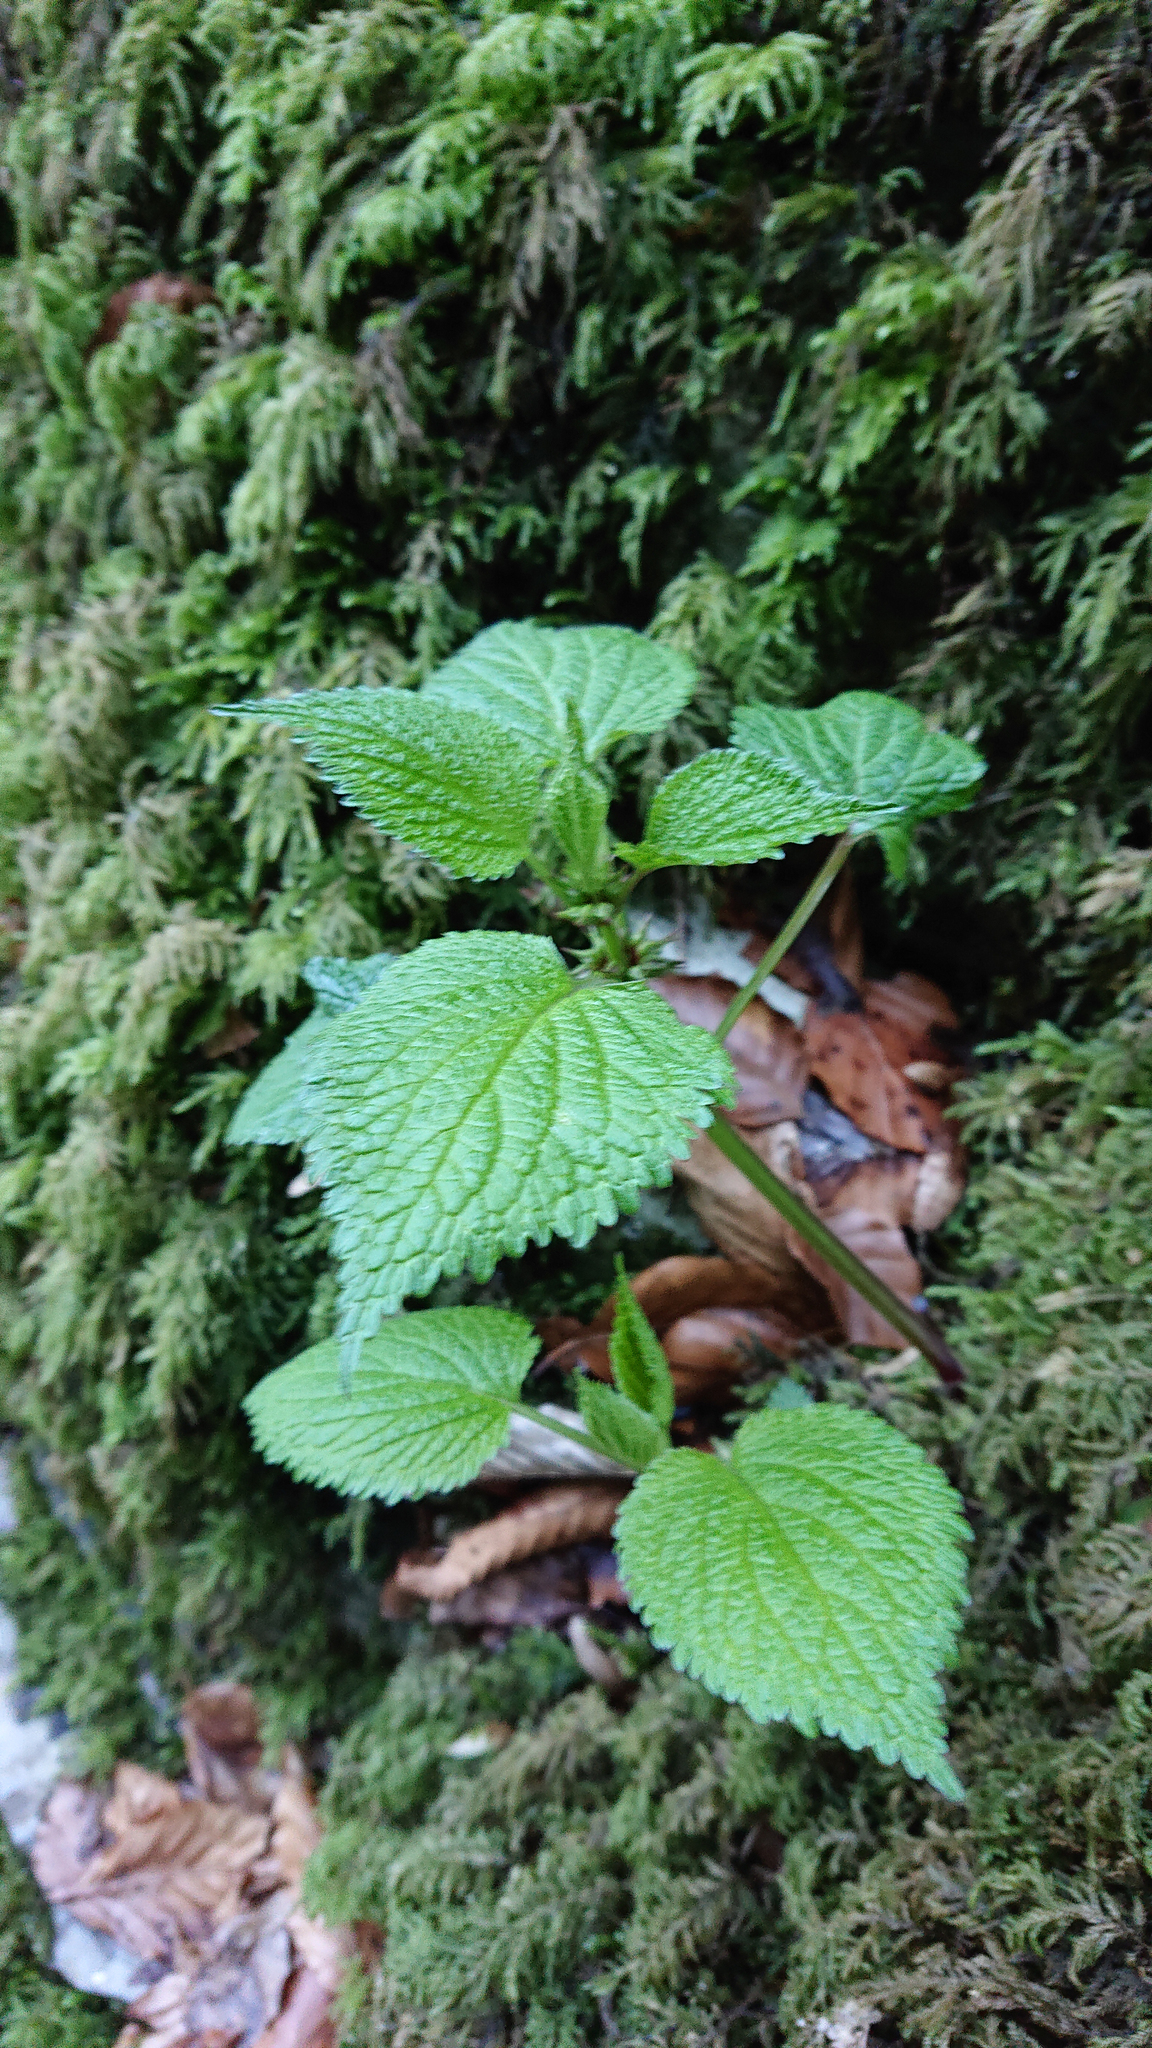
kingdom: Plantae
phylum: Tracheophyta
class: Magnoliopsida
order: Lamiales
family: Lamiaceae
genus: Lamium
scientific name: Lamium orvala
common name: Balm-leaved archangel
